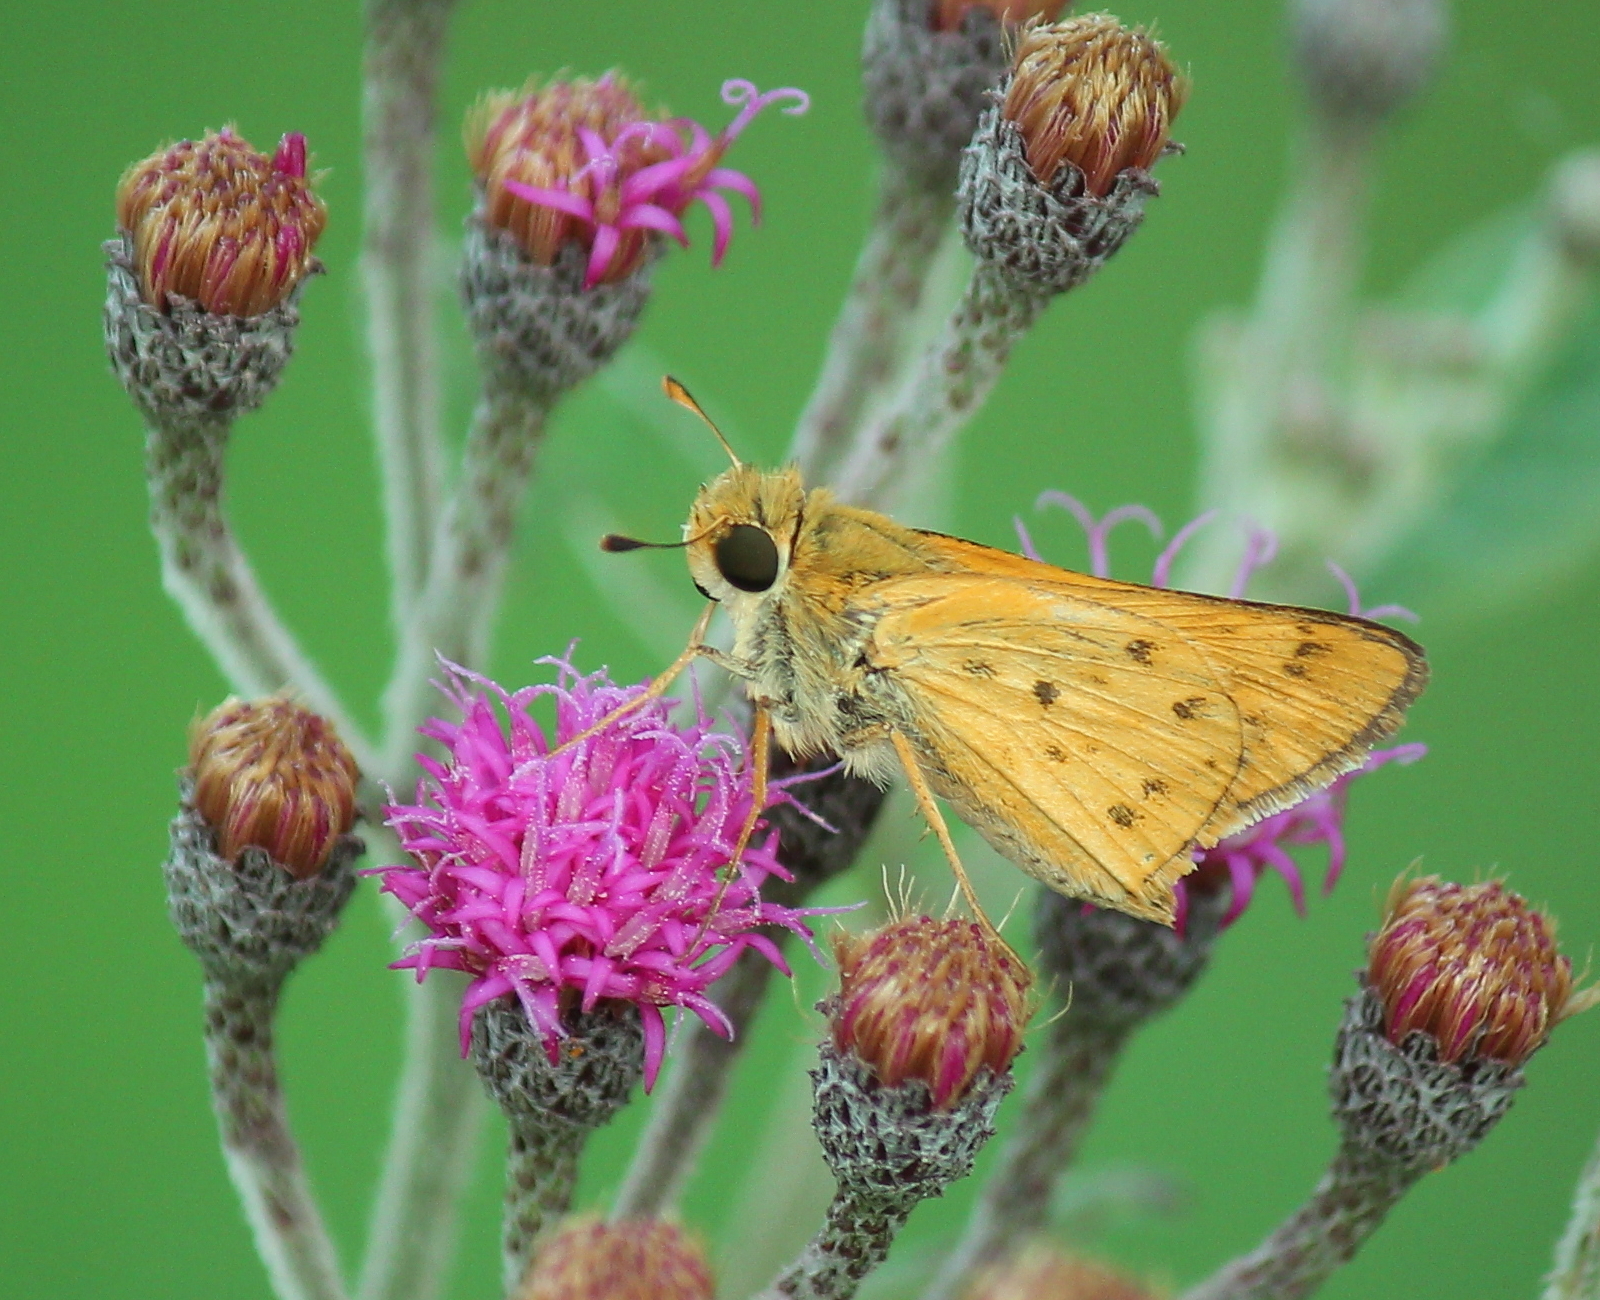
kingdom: Animalia
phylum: Arthropoda
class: Insecta
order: Lepidoptera
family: Hesperiidae
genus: Hylephila
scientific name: Hylephila phyleus
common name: Fiery skipper
